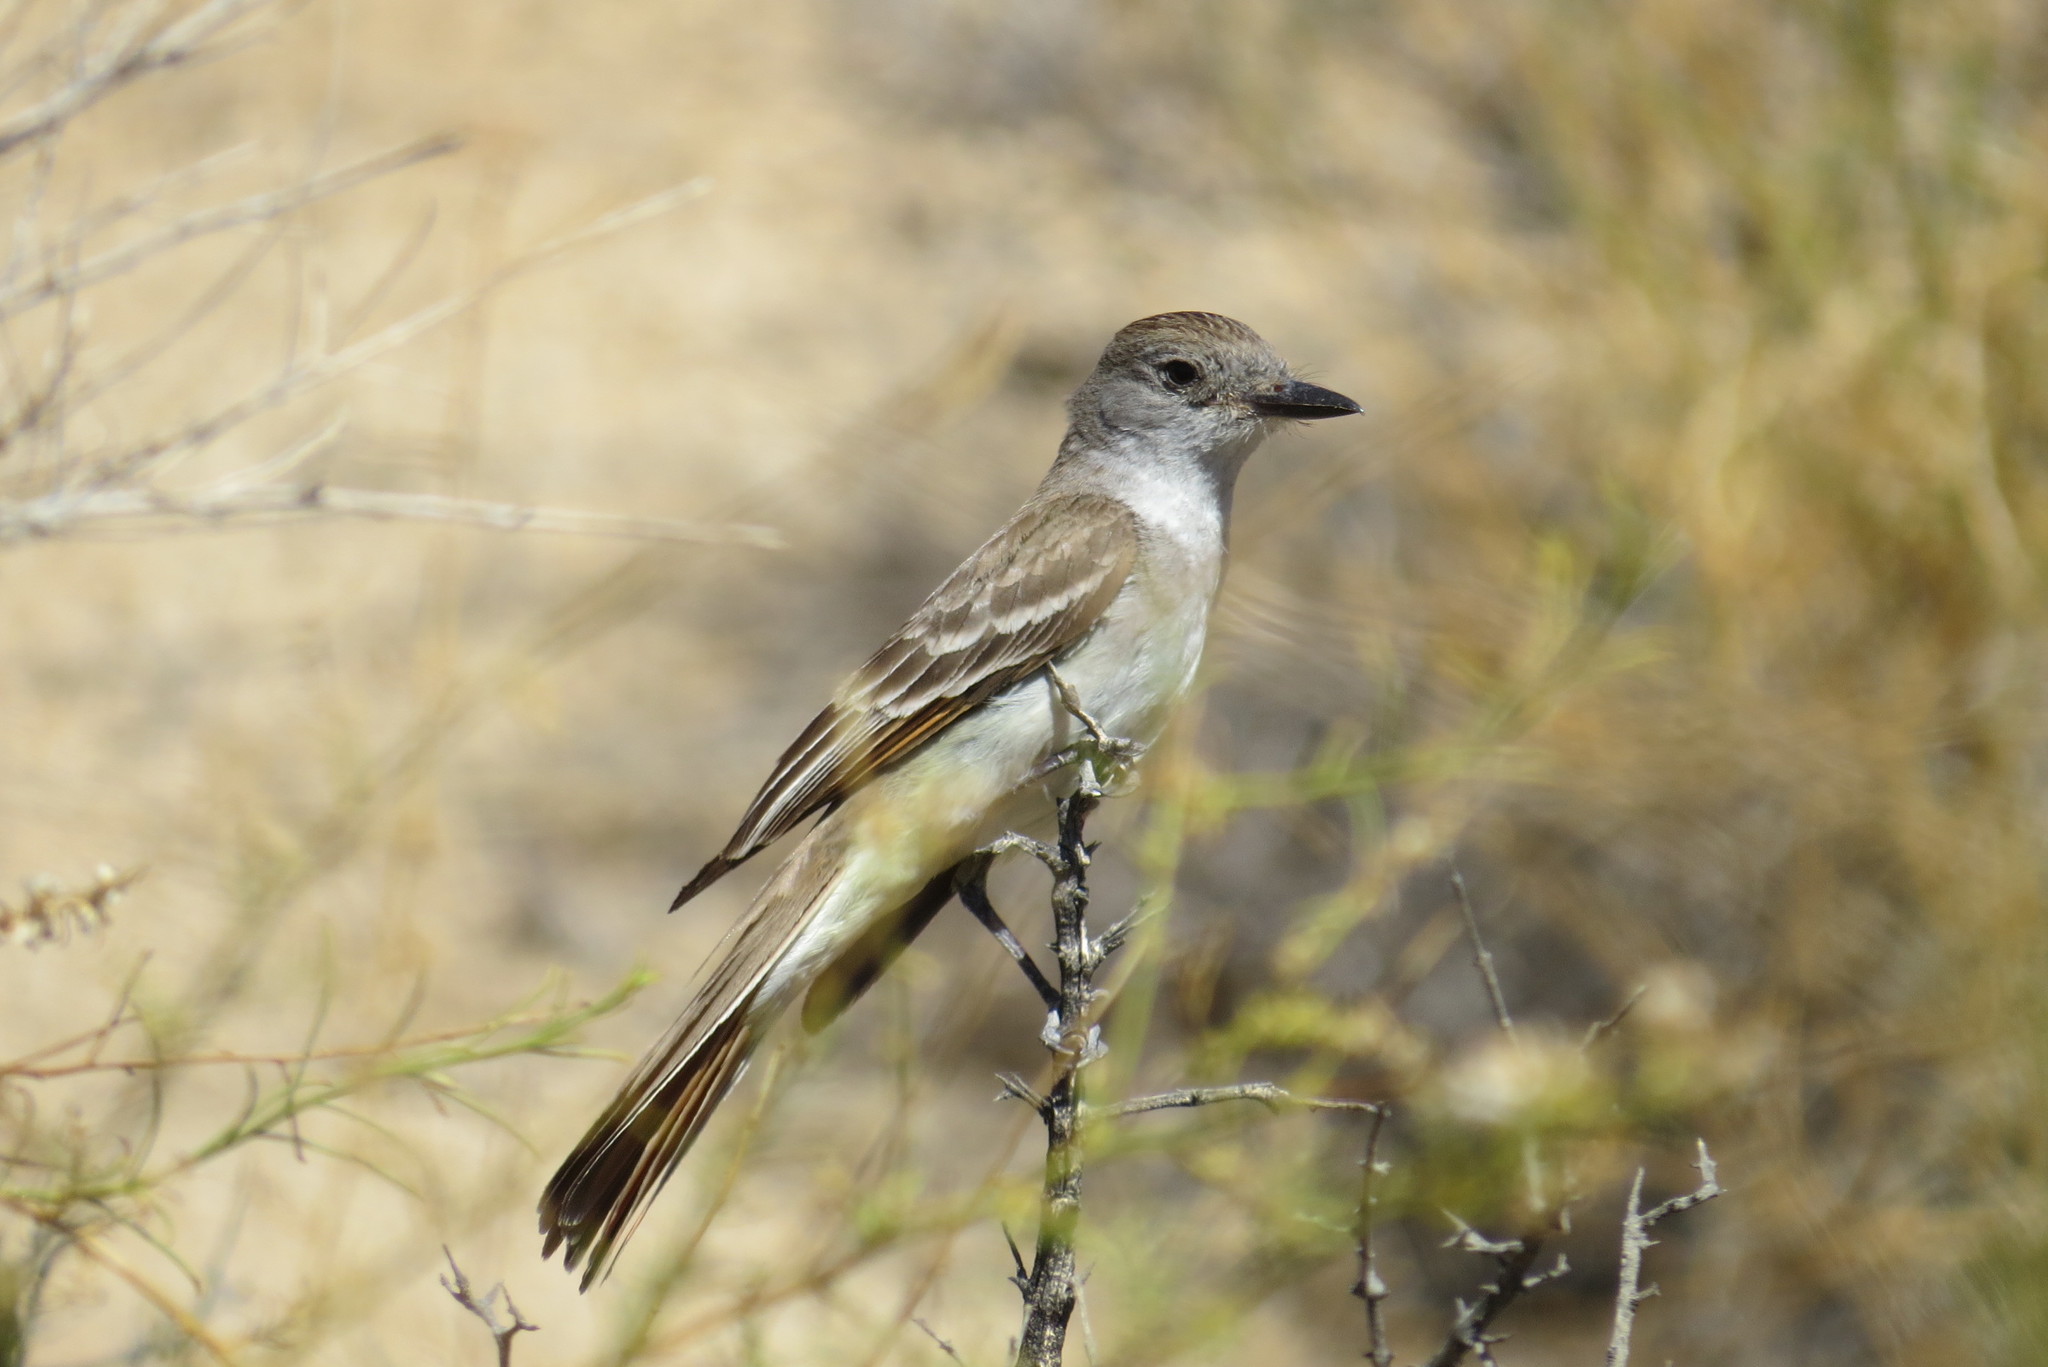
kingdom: Animalia
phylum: Chordata
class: Aves
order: Passeriformes
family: Tyrannidae
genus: Myiarchus
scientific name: Myiarchus cinerascens
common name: Ash-throated flycatcher
